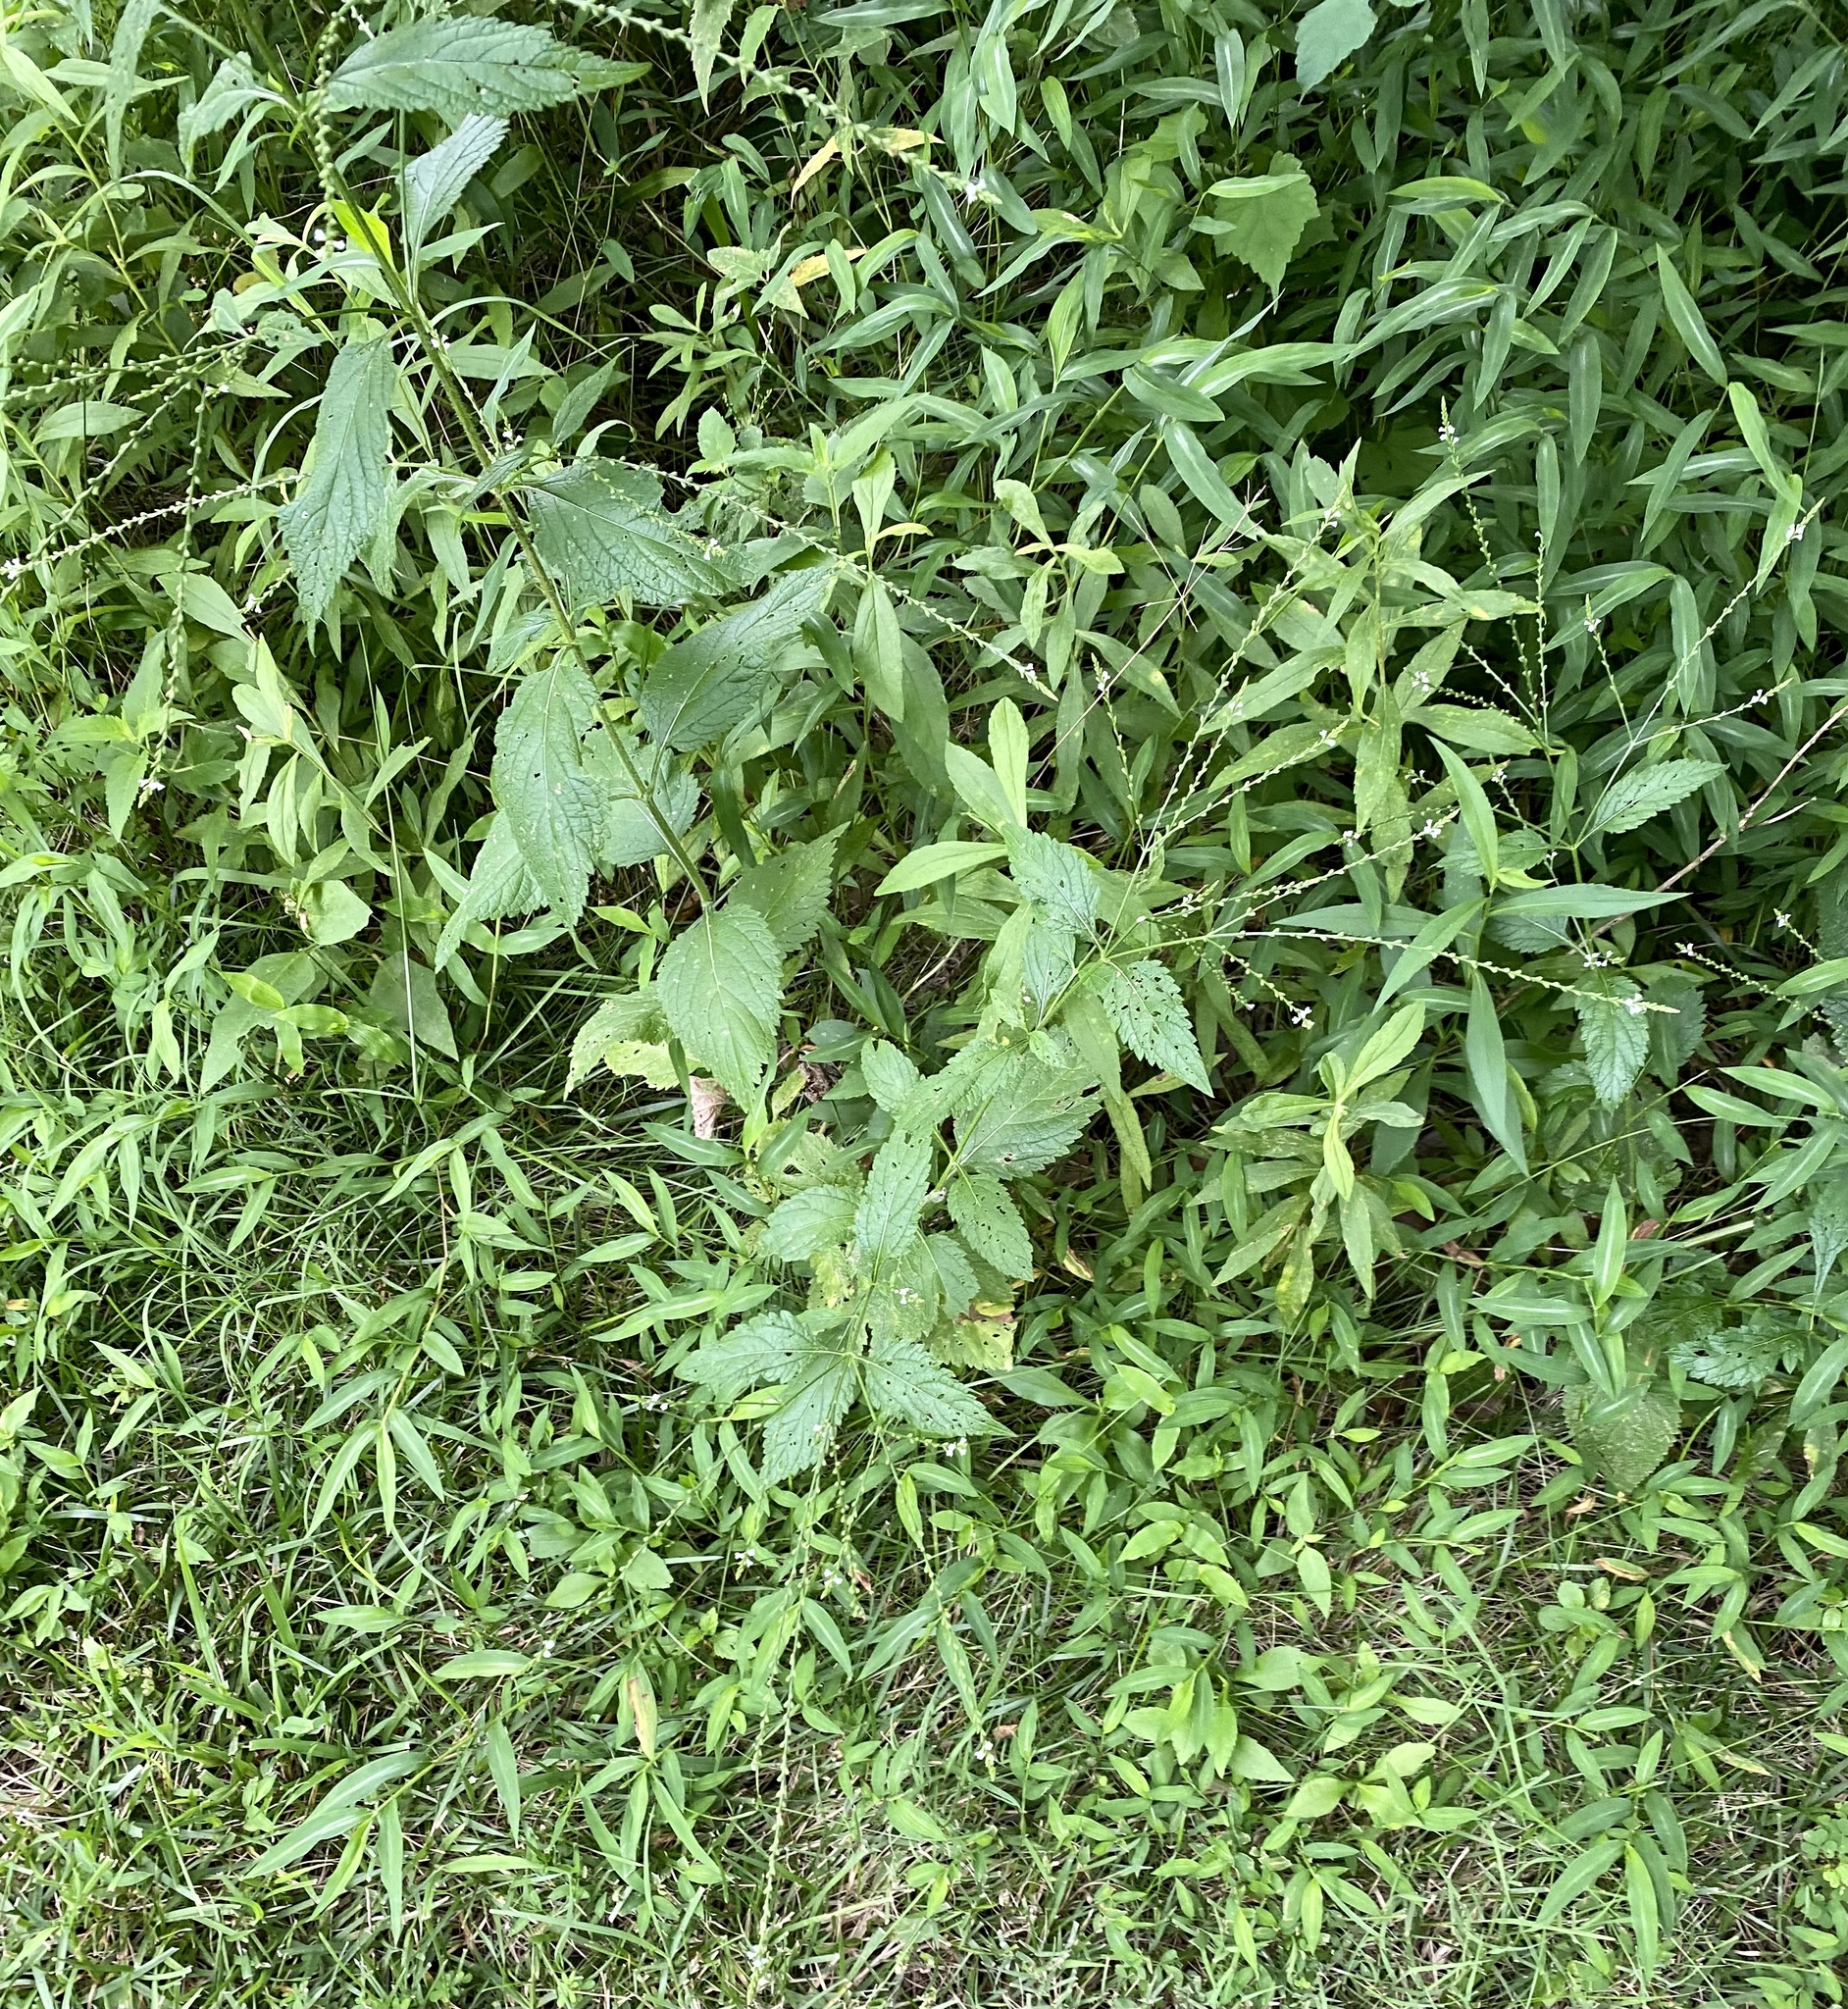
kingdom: Plantae
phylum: Tracheophyta
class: Magnoliopsida
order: Lamiales
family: Verbenaceae
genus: Verbena
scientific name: Verbena urticifolia
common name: Nettle-leaved vervain
